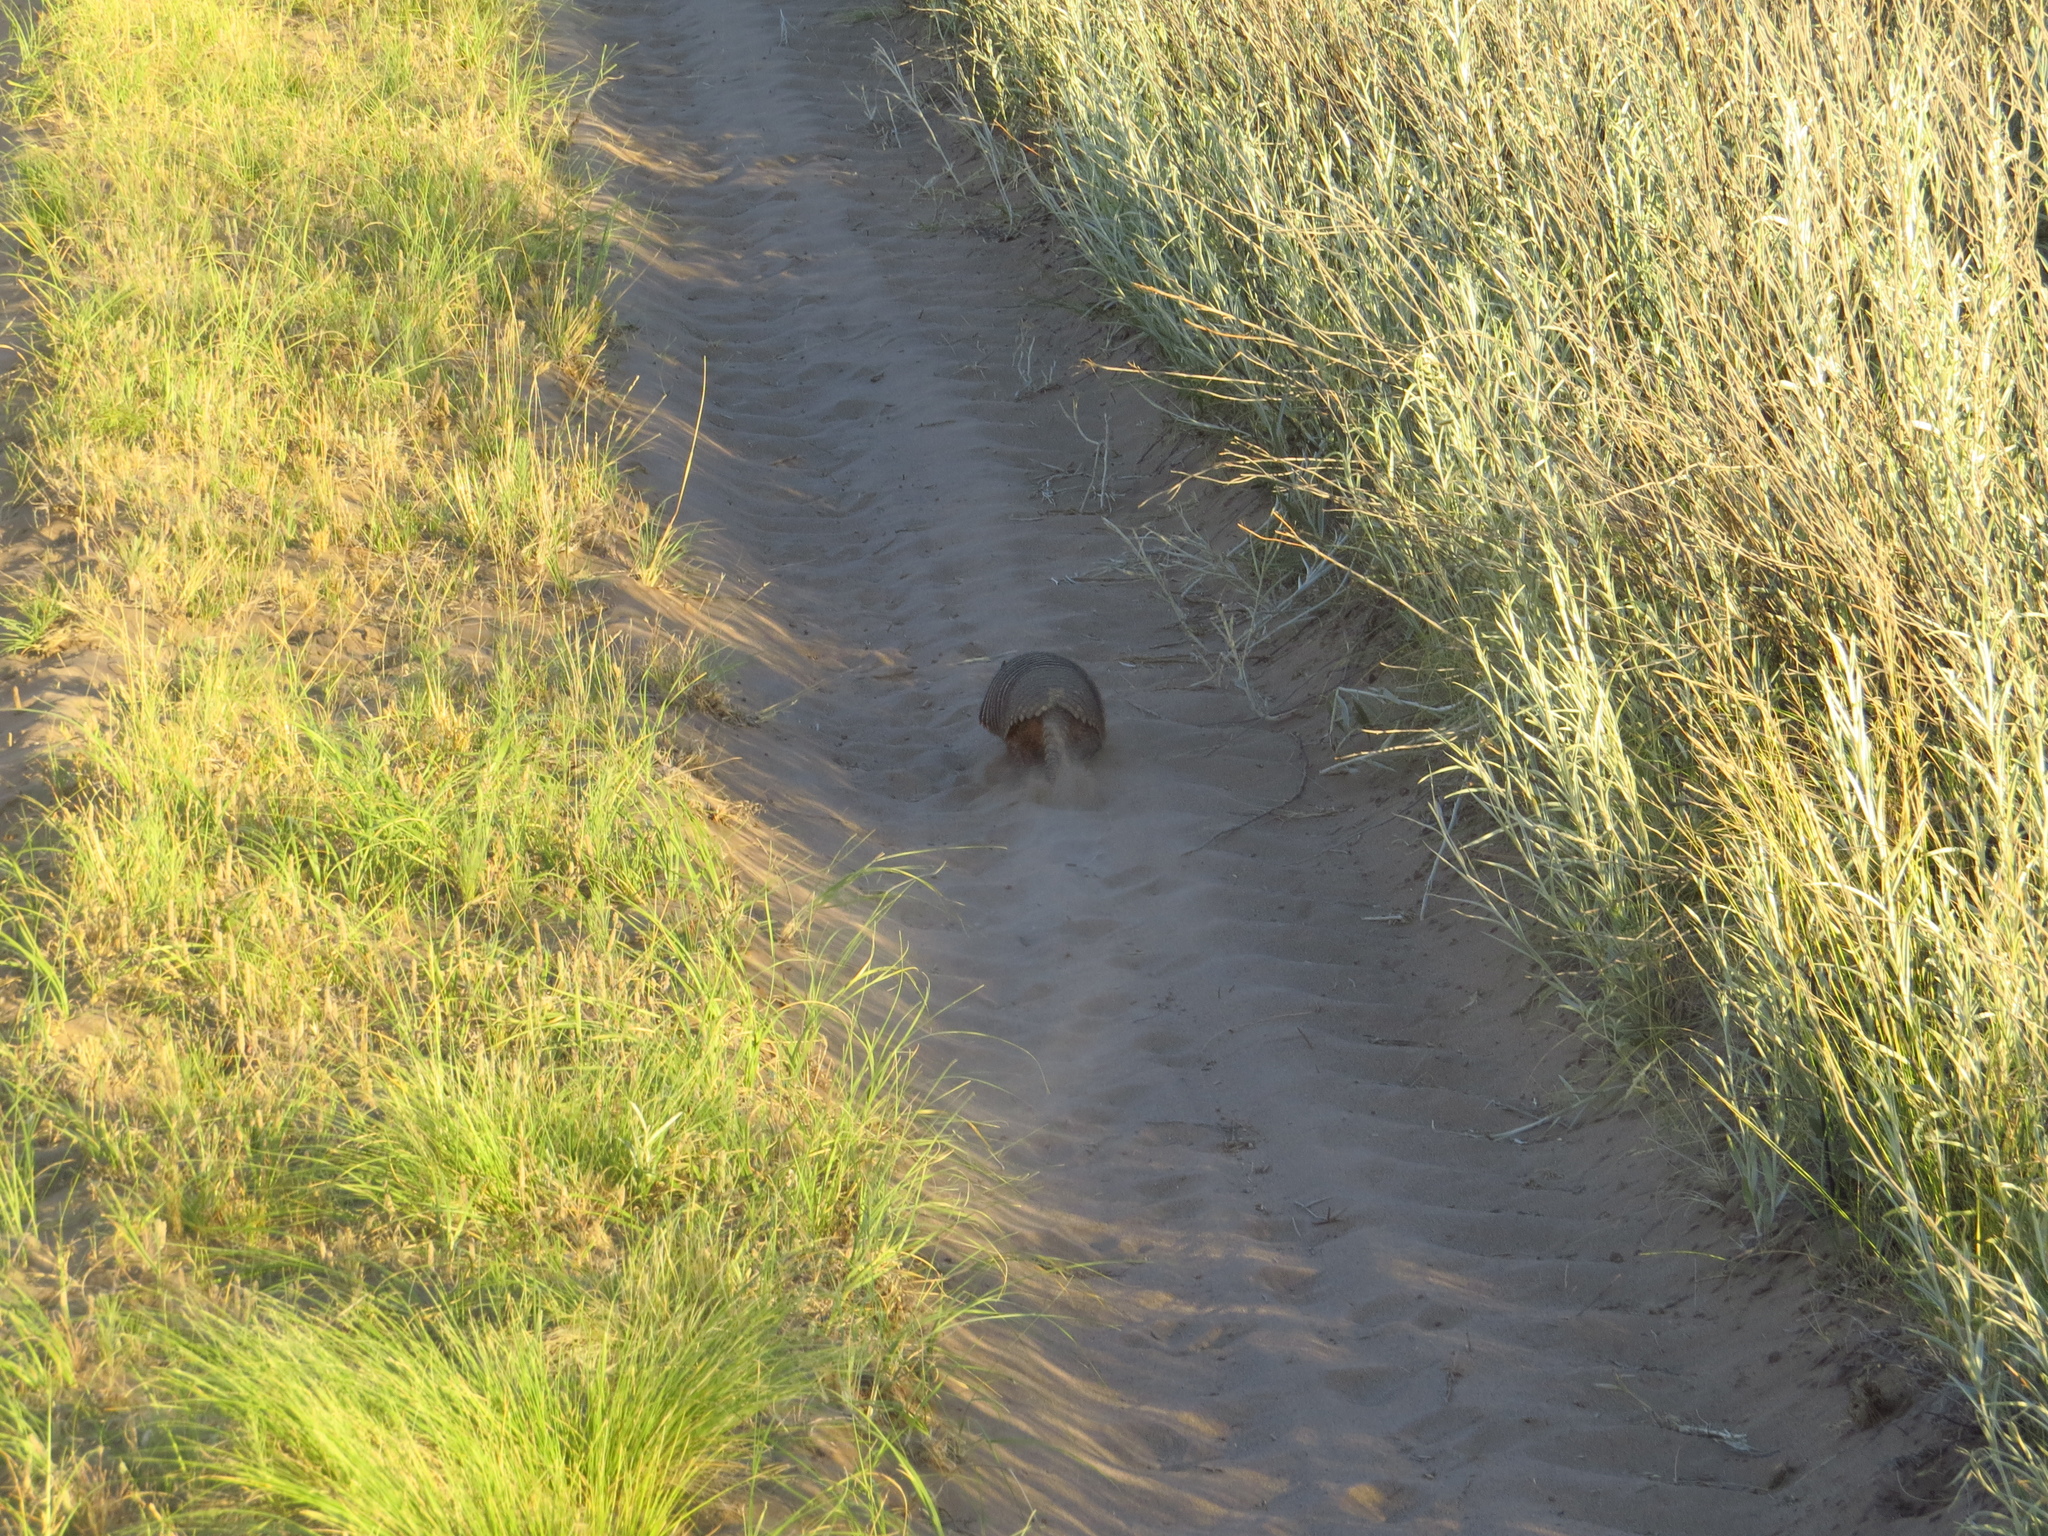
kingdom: Animalia
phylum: Chordata
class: Mammalia
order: Cingulata
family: Dasypodidae
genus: Chaetophractus
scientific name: Chaetophractus villosus
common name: Big hairy armadillo
